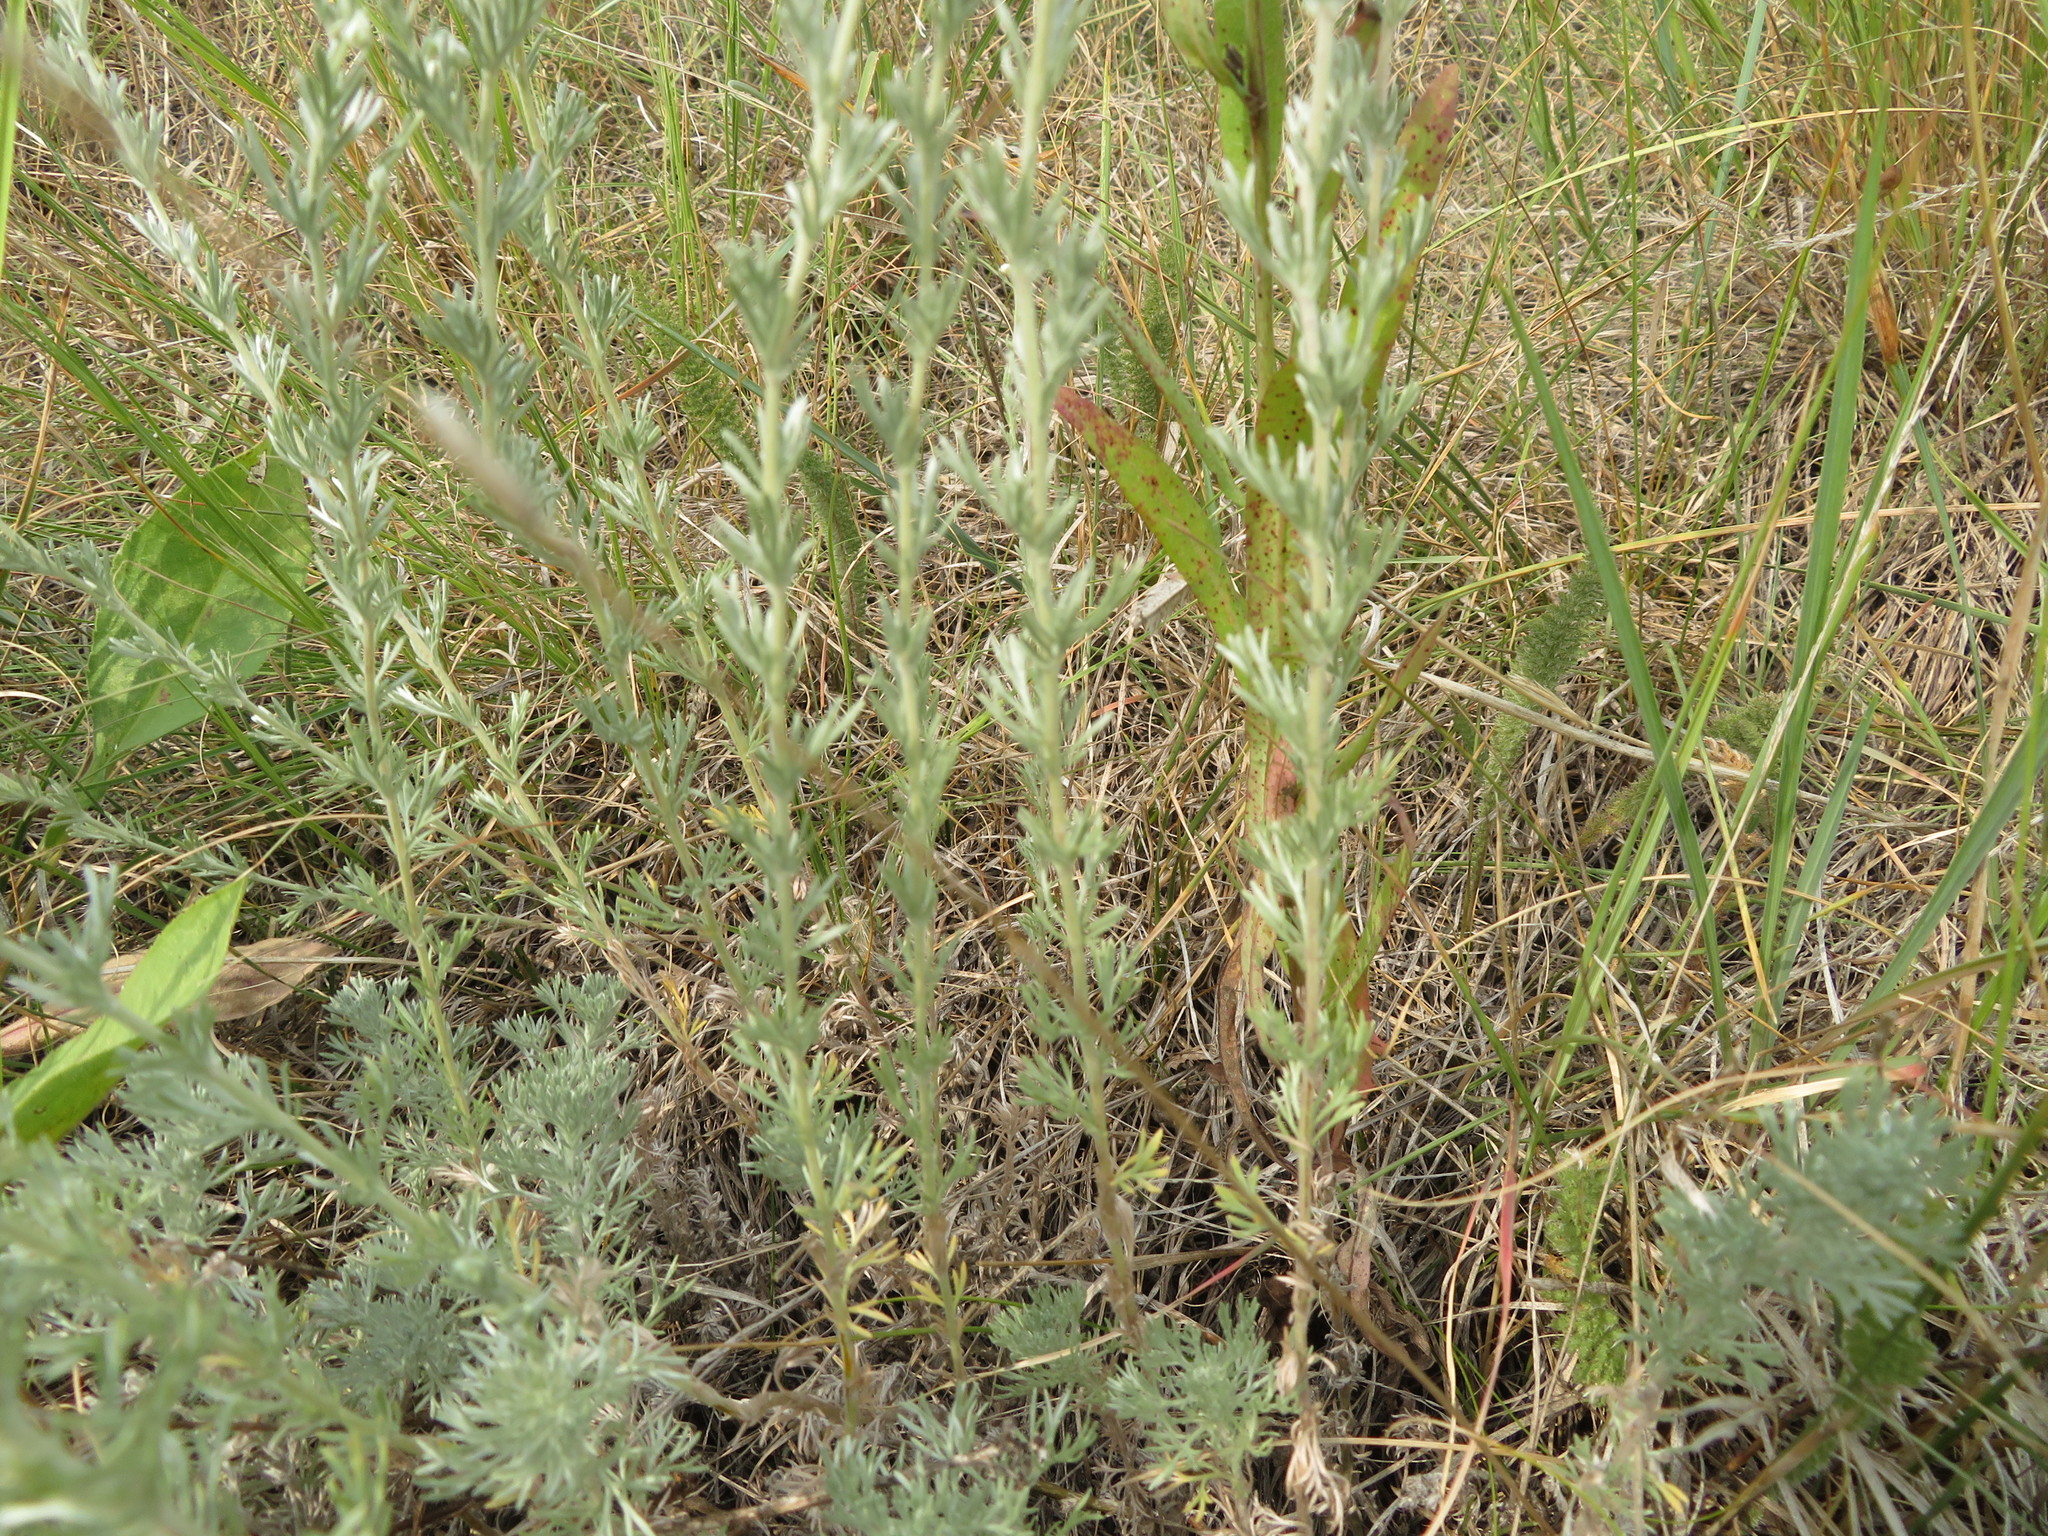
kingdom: Plantae
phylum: Tracheophyta
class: Magnoliopsida
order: Asterales
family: Asteraceae
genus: Artemisia
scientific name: Artemisia frigida
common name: Prairie sagewort
